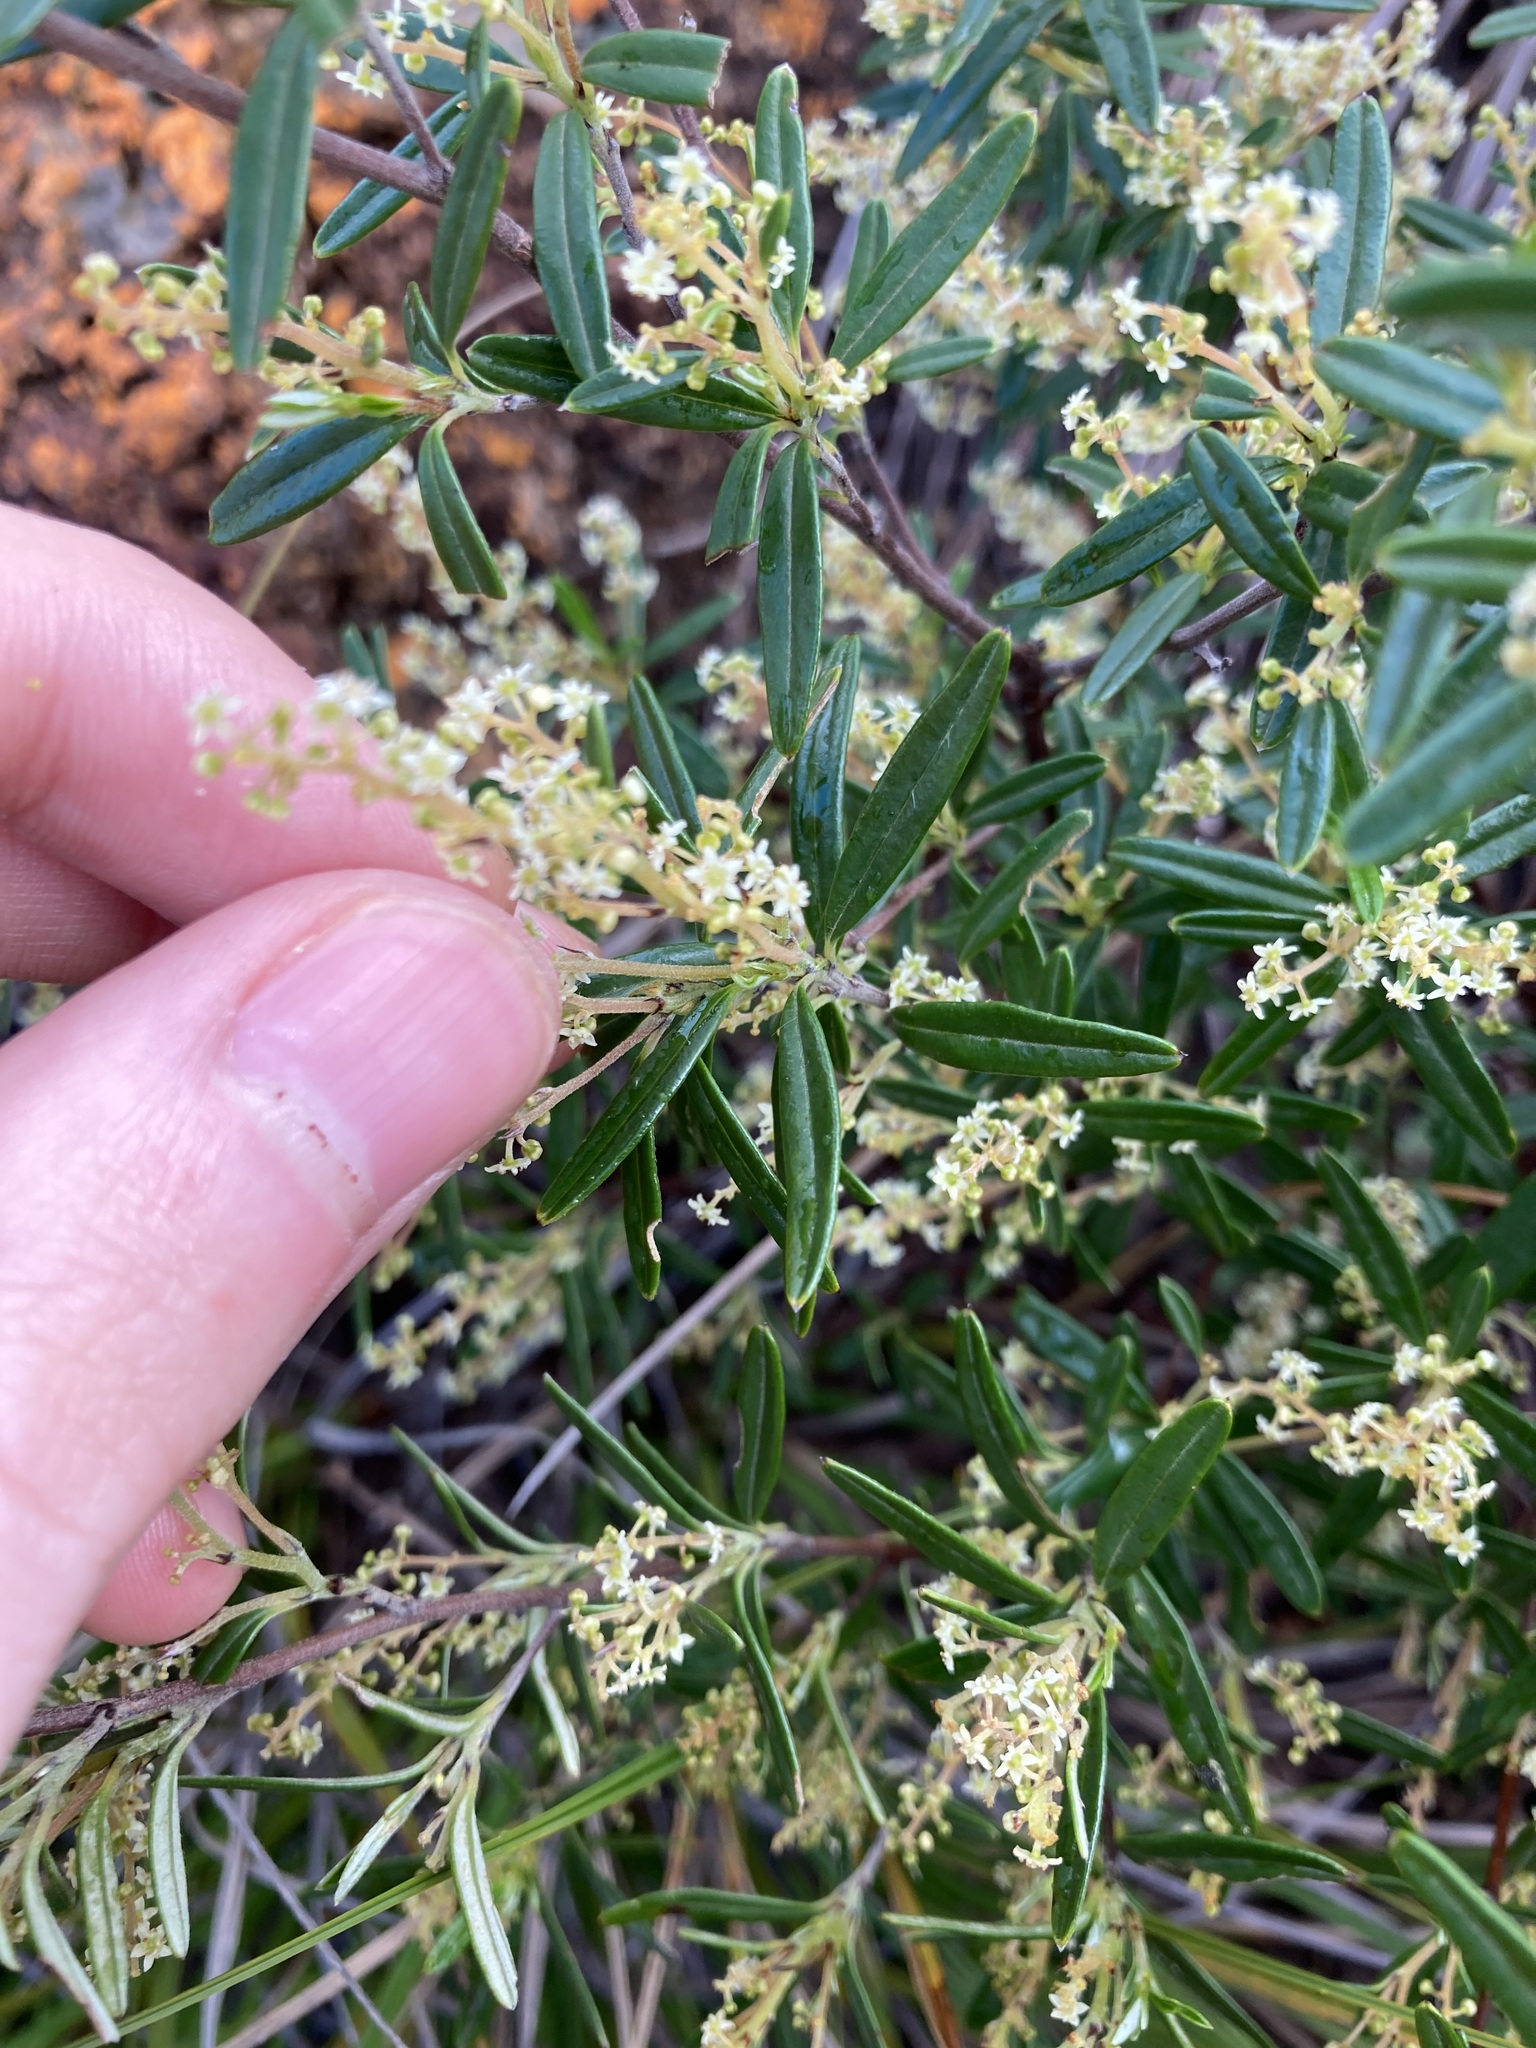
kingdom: Plantae
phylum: Tracheophyta
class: Magnoliopsida
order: Rosales
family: Rhamnaceae
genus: Trymalium
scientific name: Trymalium ledifolium
